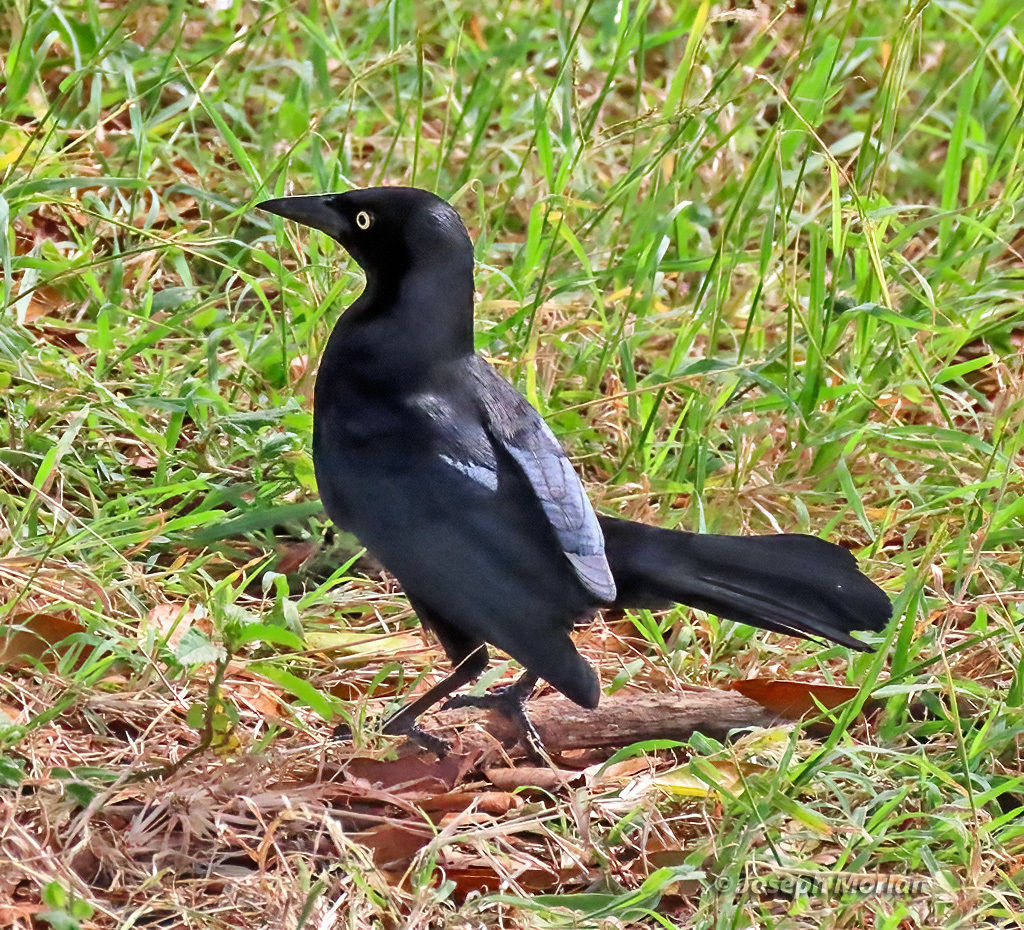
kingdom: Animalia
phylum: Chordata
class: Aves
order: Passeriformes
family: Icteridae
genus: Quiscalus
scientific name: Quiscalus lugubris
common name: Carib grackle
